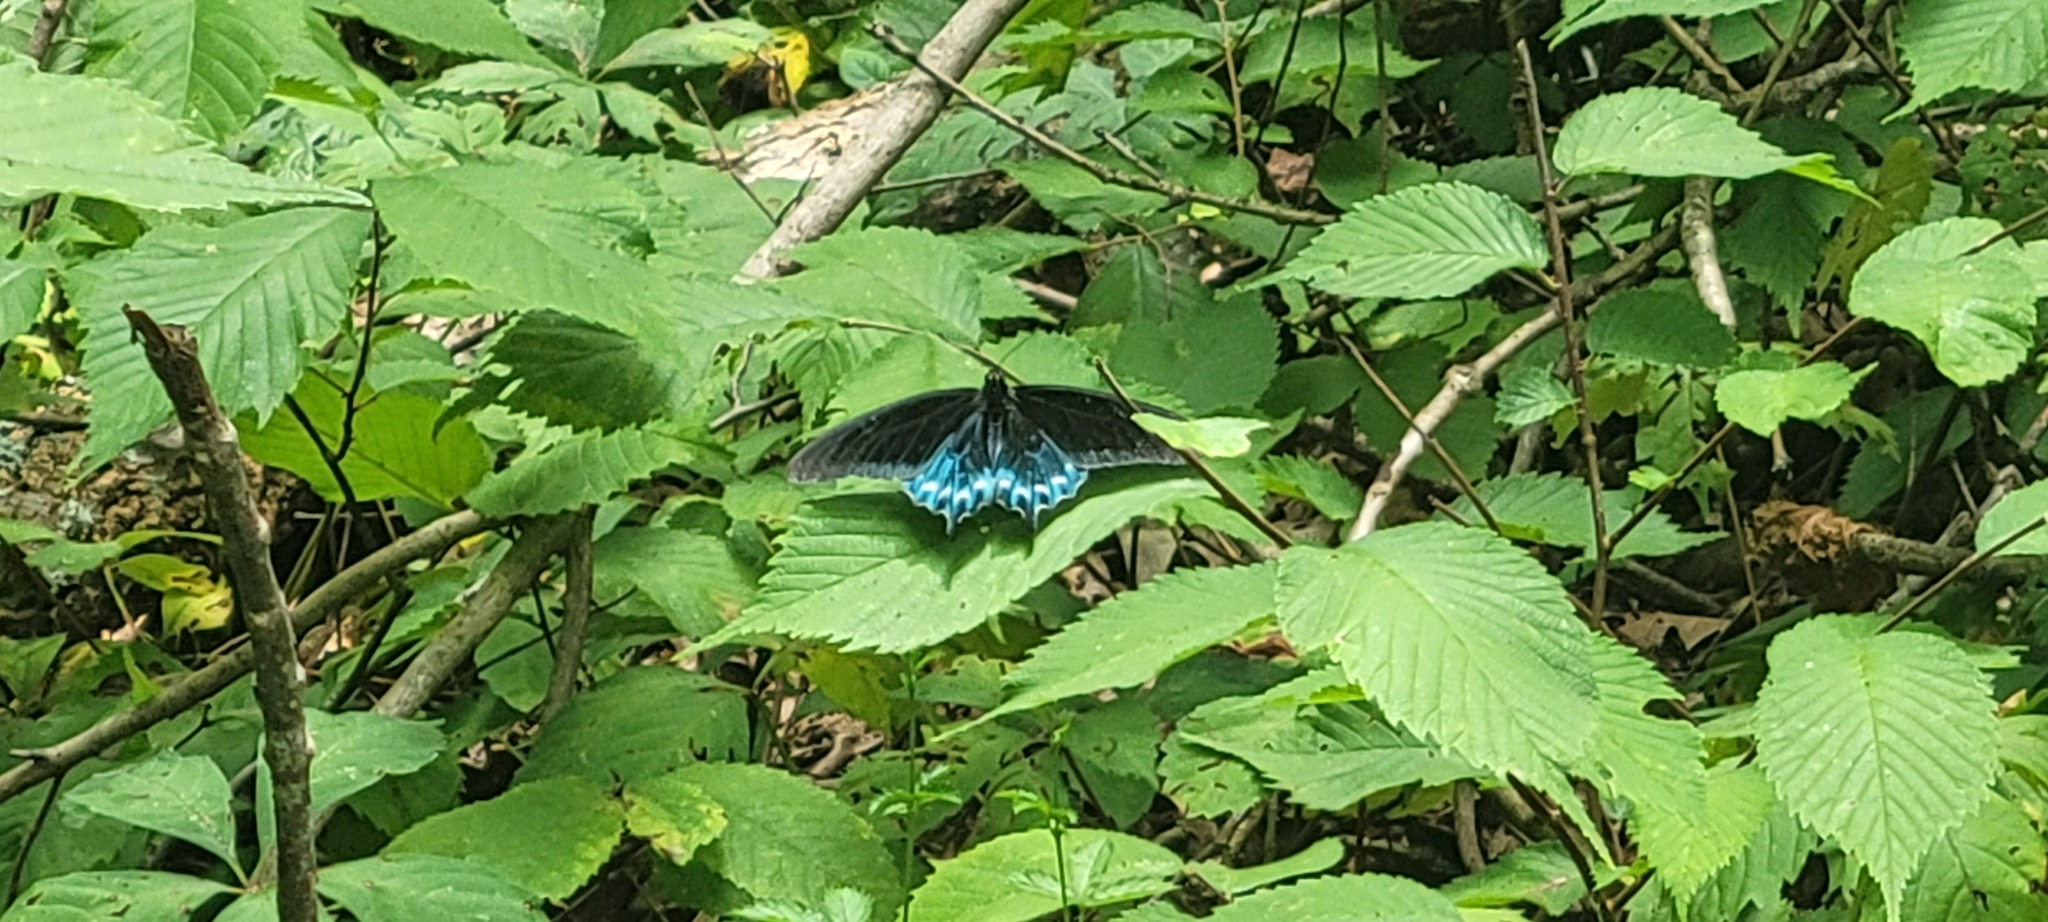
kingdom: Animalia
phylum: Arthropoda
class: Insecta
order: Lepidoptera
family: Papilionidae
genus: Battus
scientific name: Battus philenor
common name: Pipevine swallowtail
